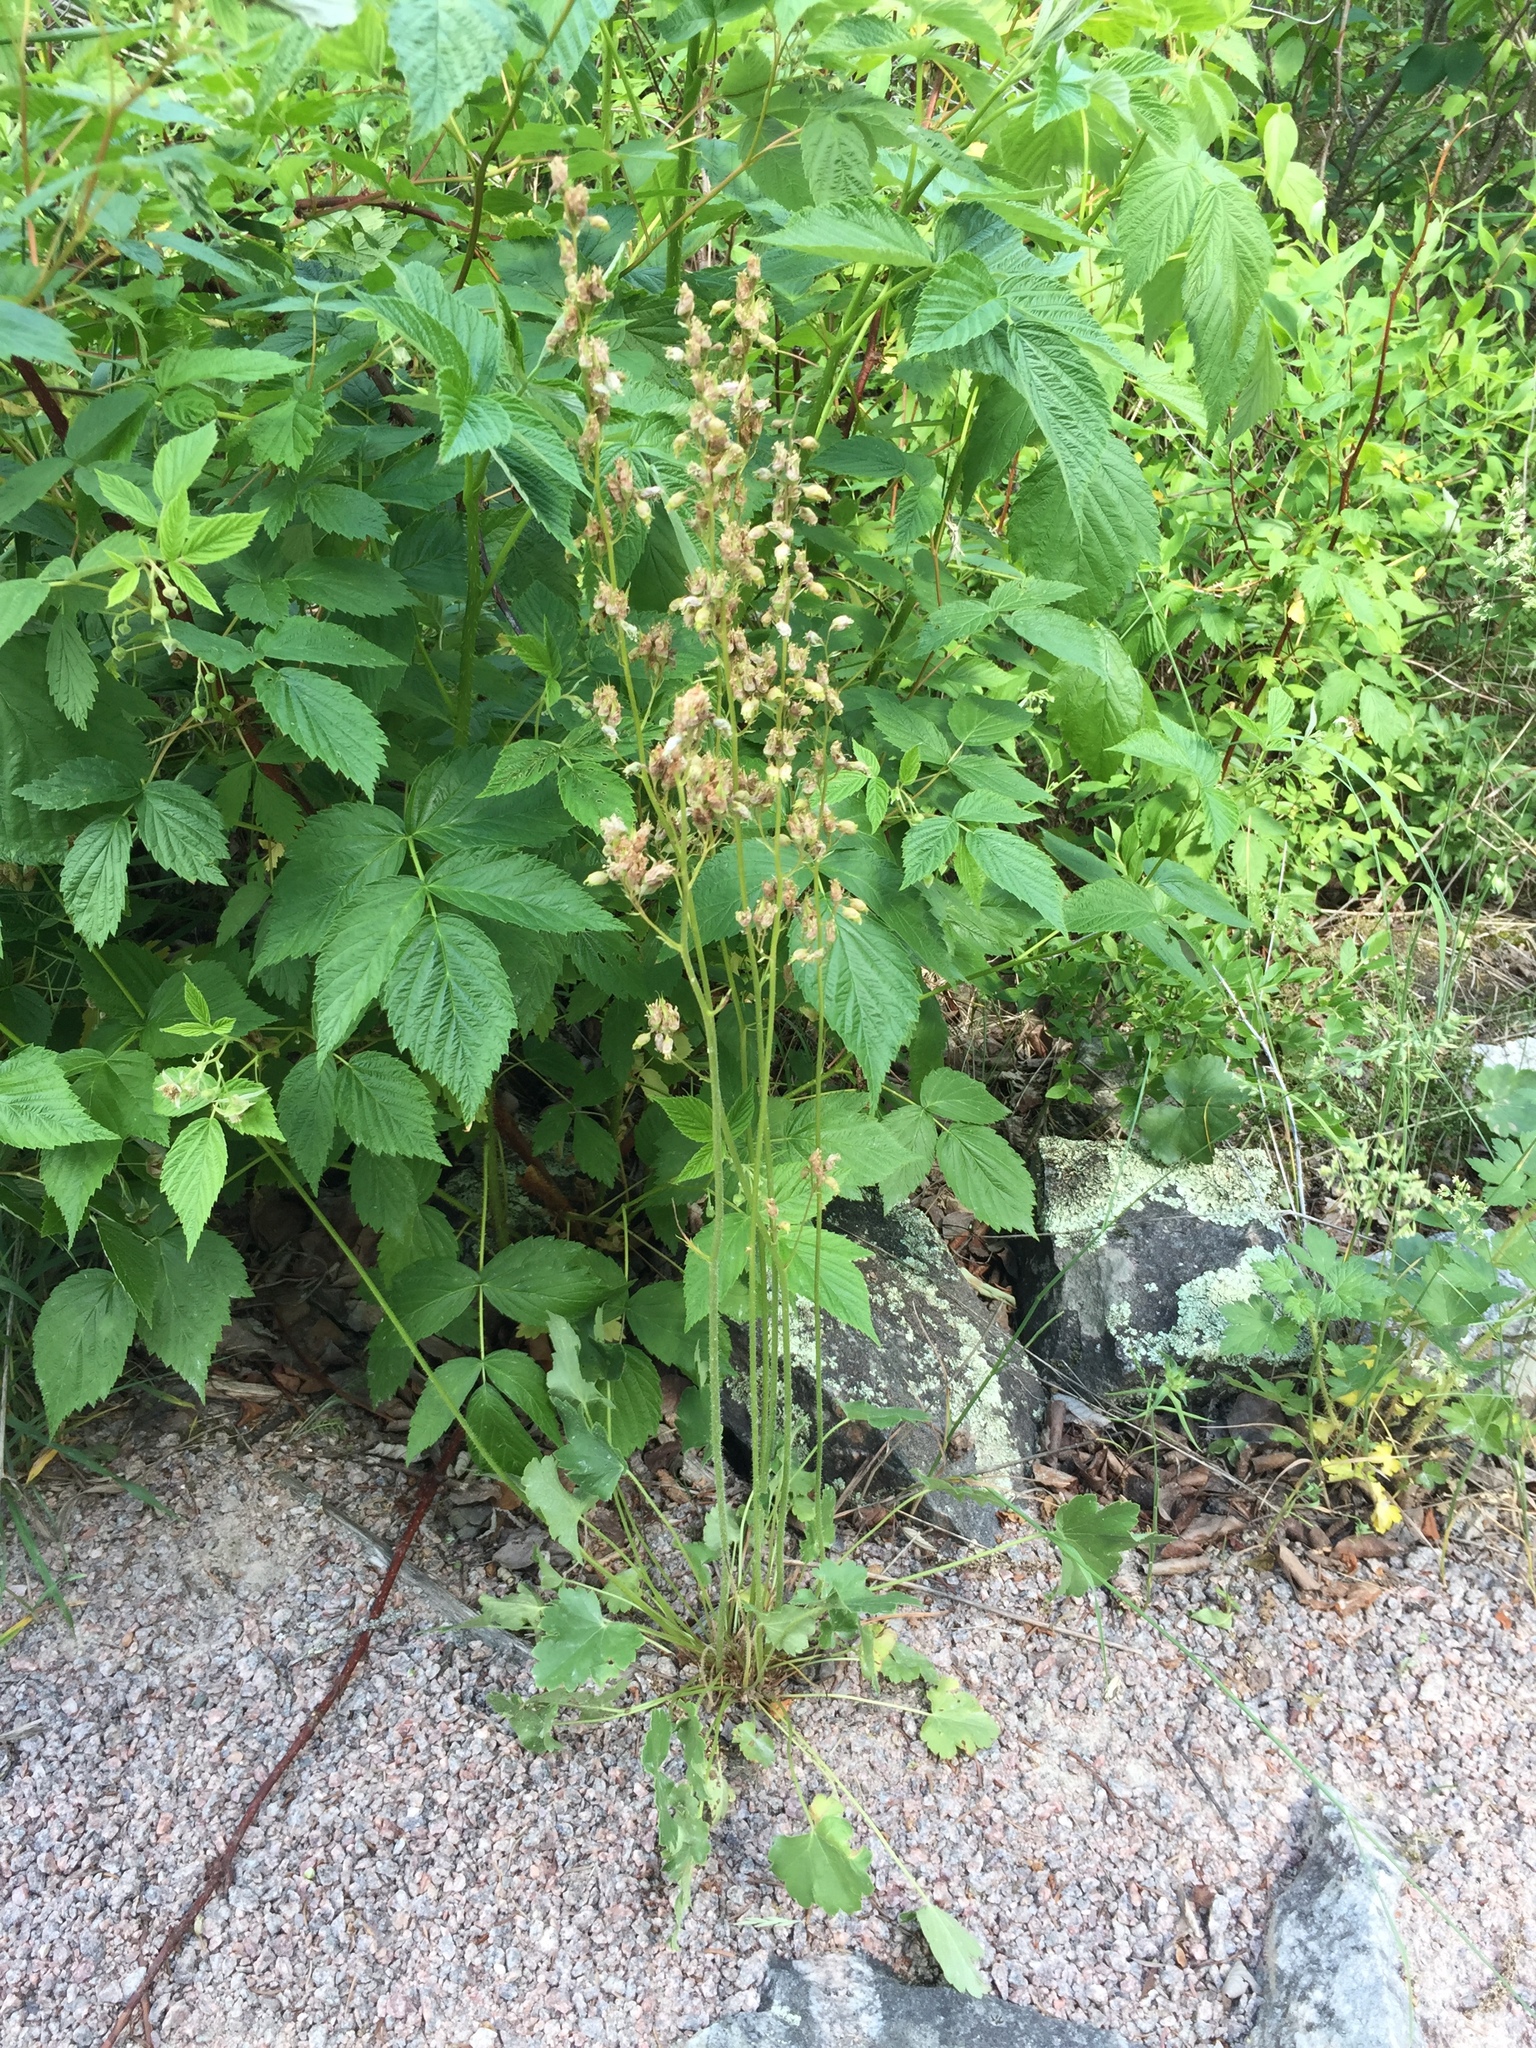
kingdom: Plantae
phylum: Tracheophyta
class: Magnoliopsida
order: Saxifragales
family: Saxifragaceae
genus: Heuchera
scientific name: Heuchera richardsonii
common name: Richardson's alumroot
